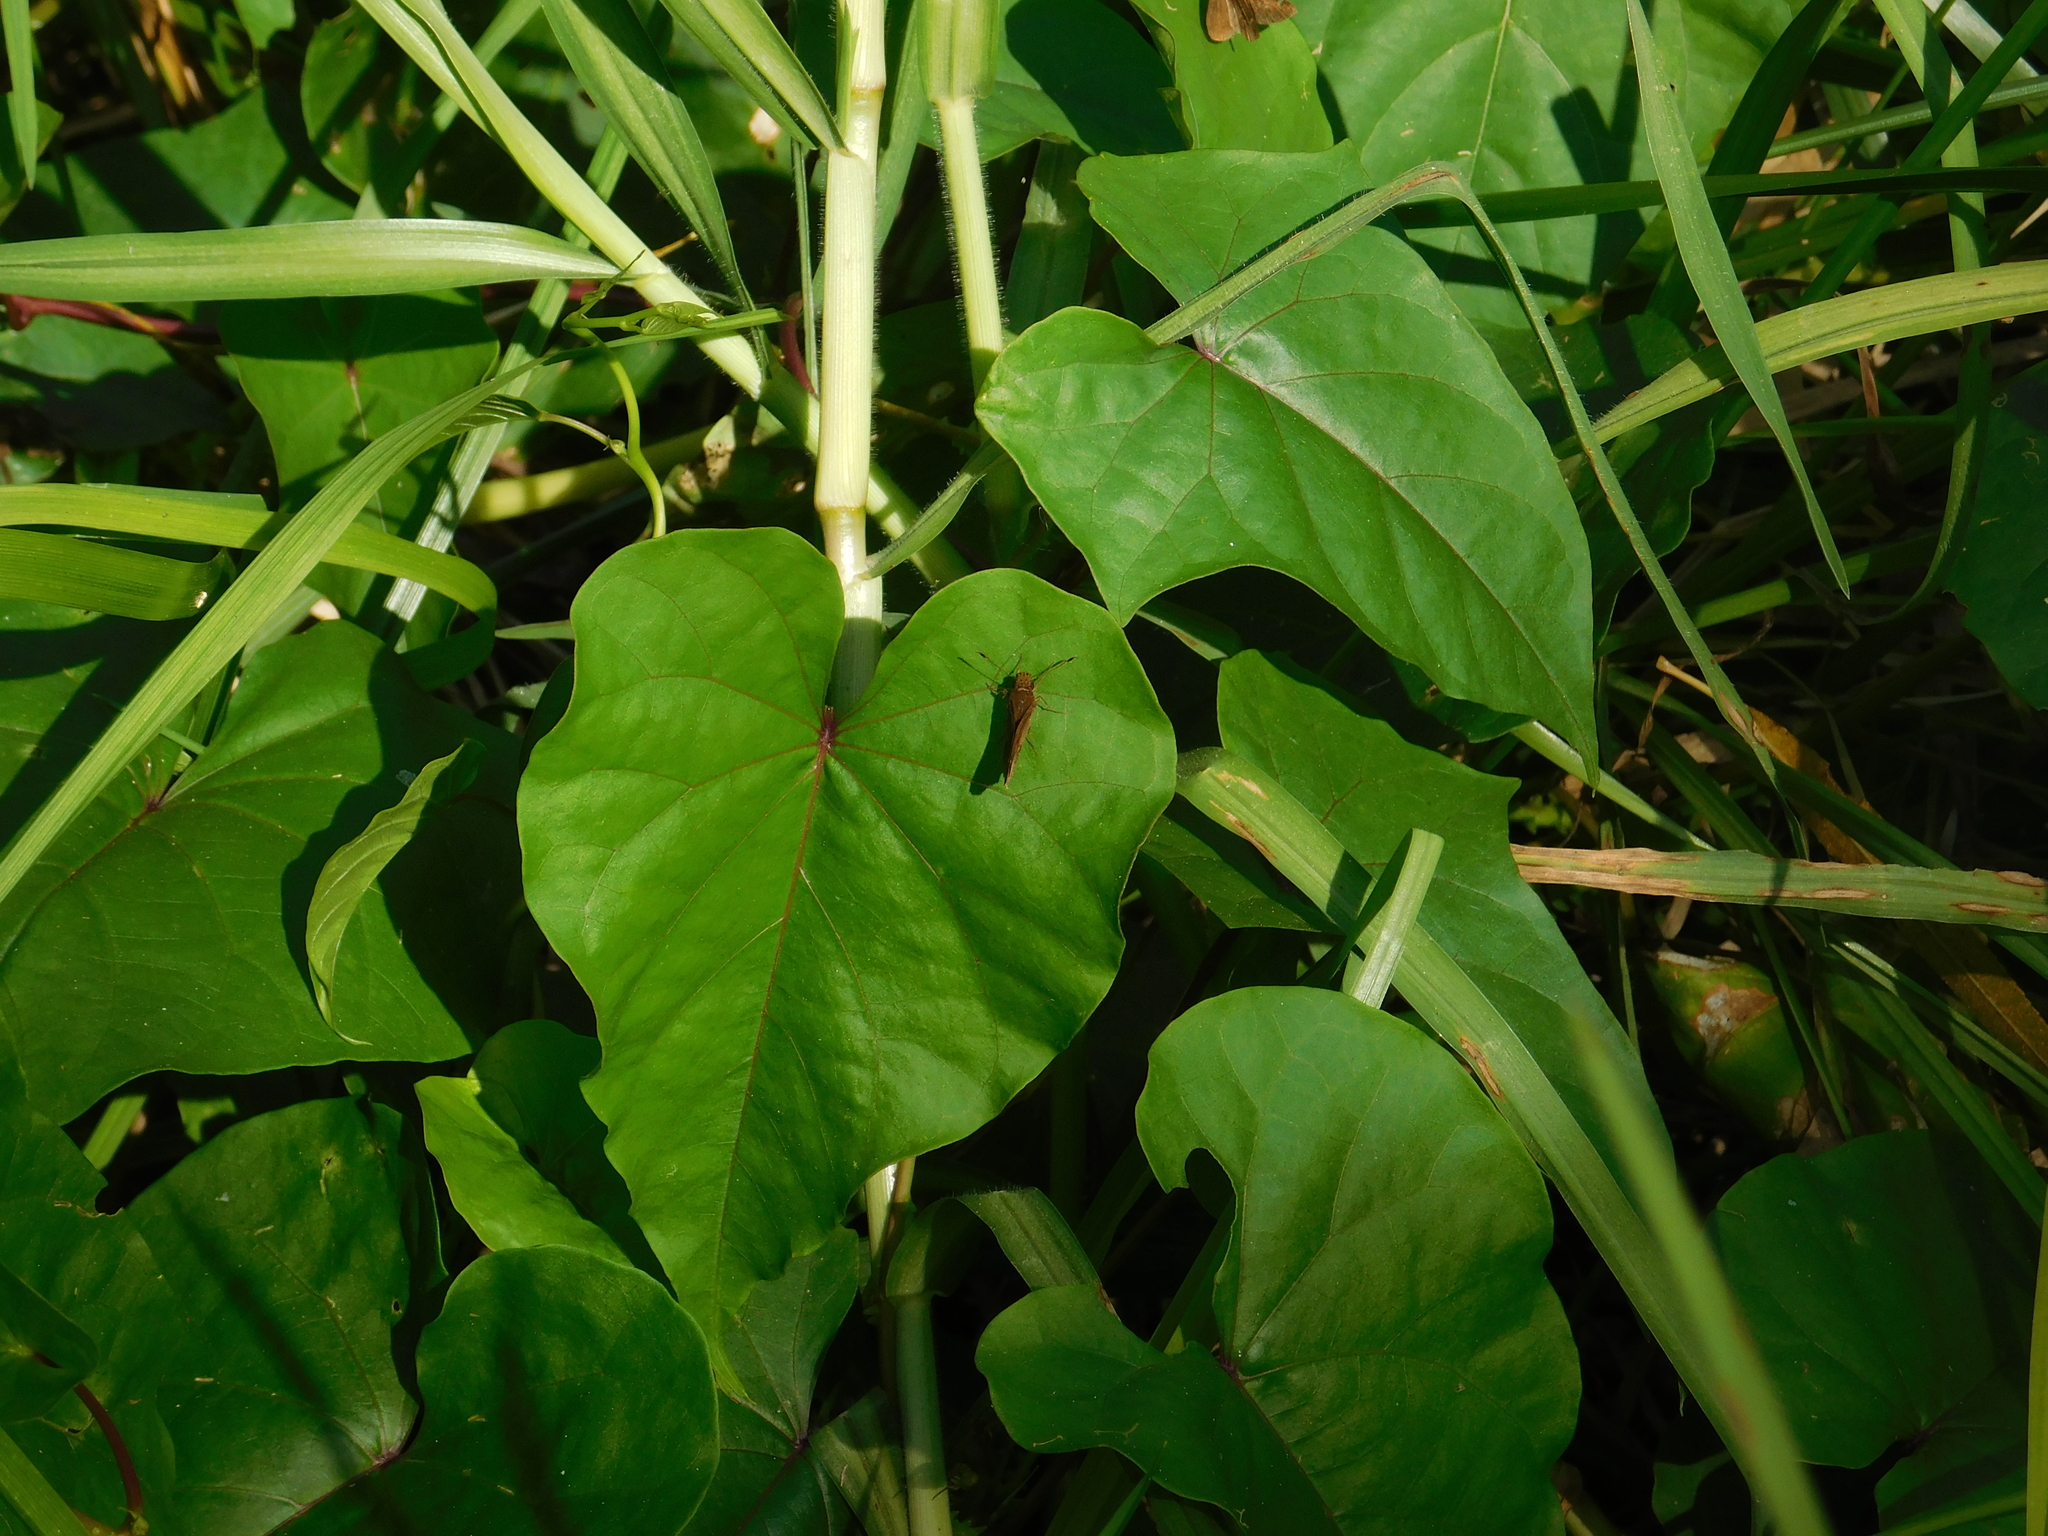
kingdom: Animalia
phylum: Arthropoda
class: Insecta
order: Lepidoptera
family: Hesperiidae
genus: Cymaenes
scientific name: Cymaenes
